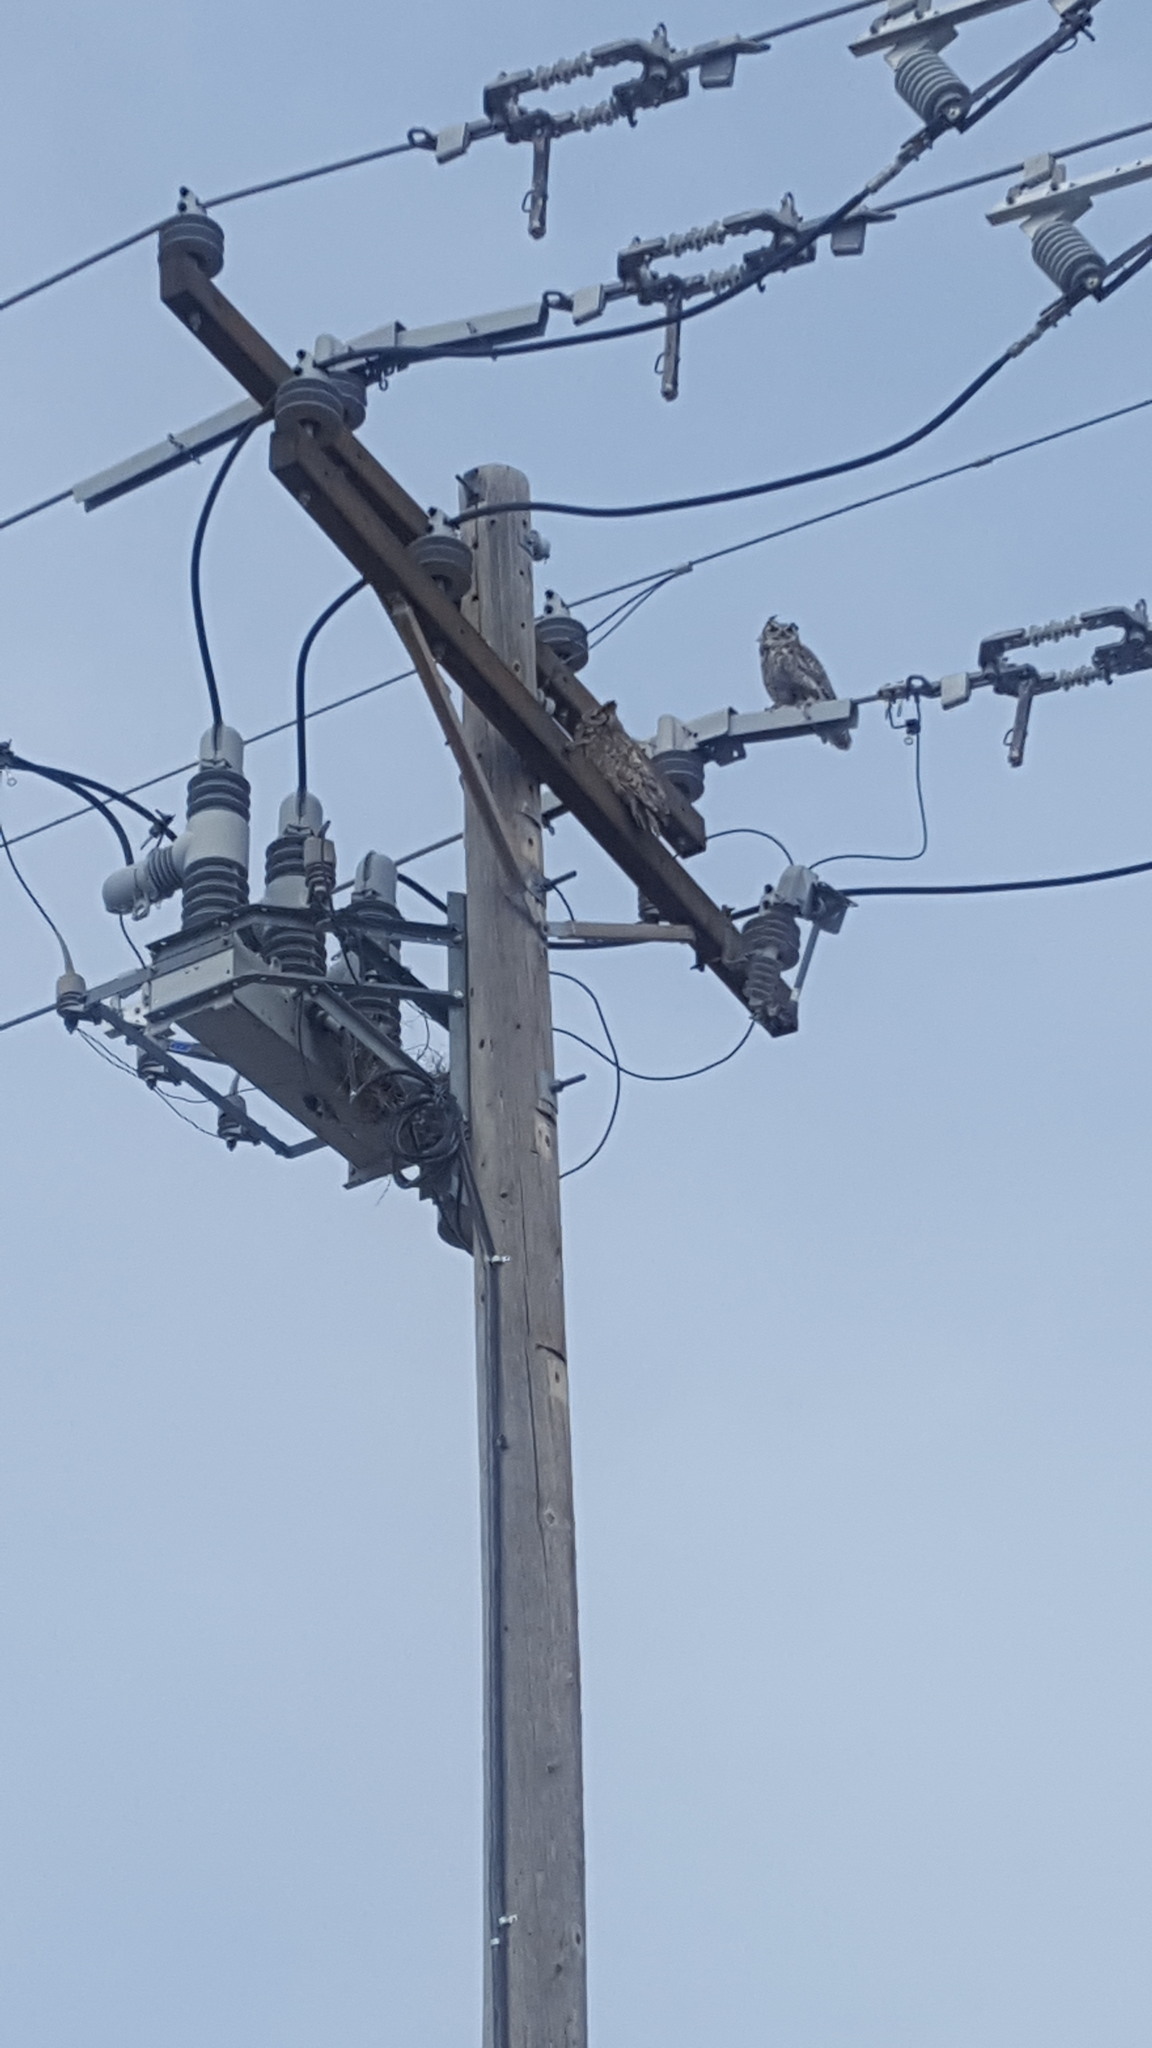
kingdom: Animalia
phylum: Chordata
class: Aves
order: Strigiformes
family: Strigidae
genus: Bubo
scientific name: Bubo virginianus
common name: Great horned owl
